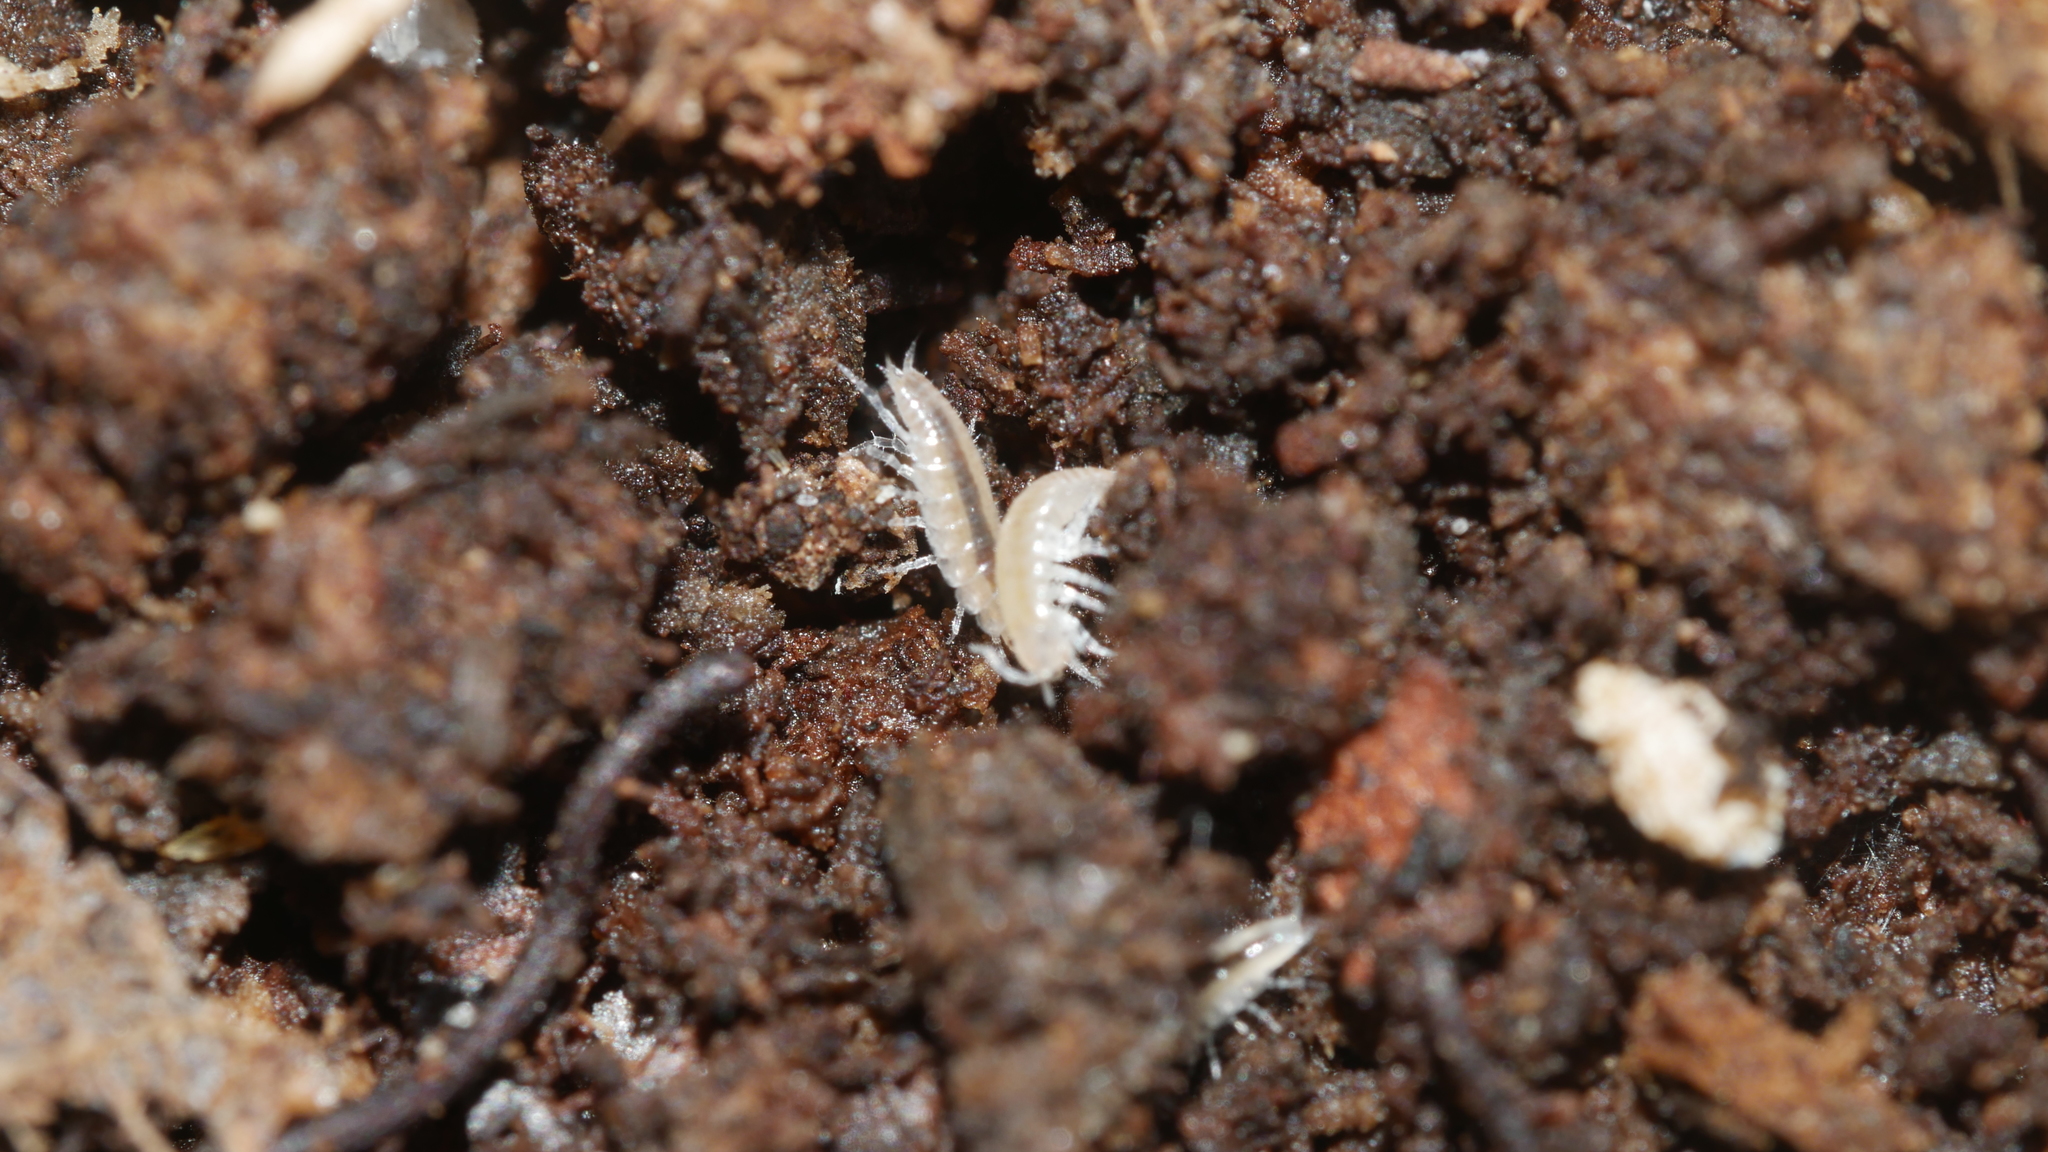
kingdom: Animalia
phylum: Arthropoda
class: Malacostraca
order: Isopoda
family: Philosciidae
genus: Chaetophiloscia
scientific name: Chaetophiloscia sicula
